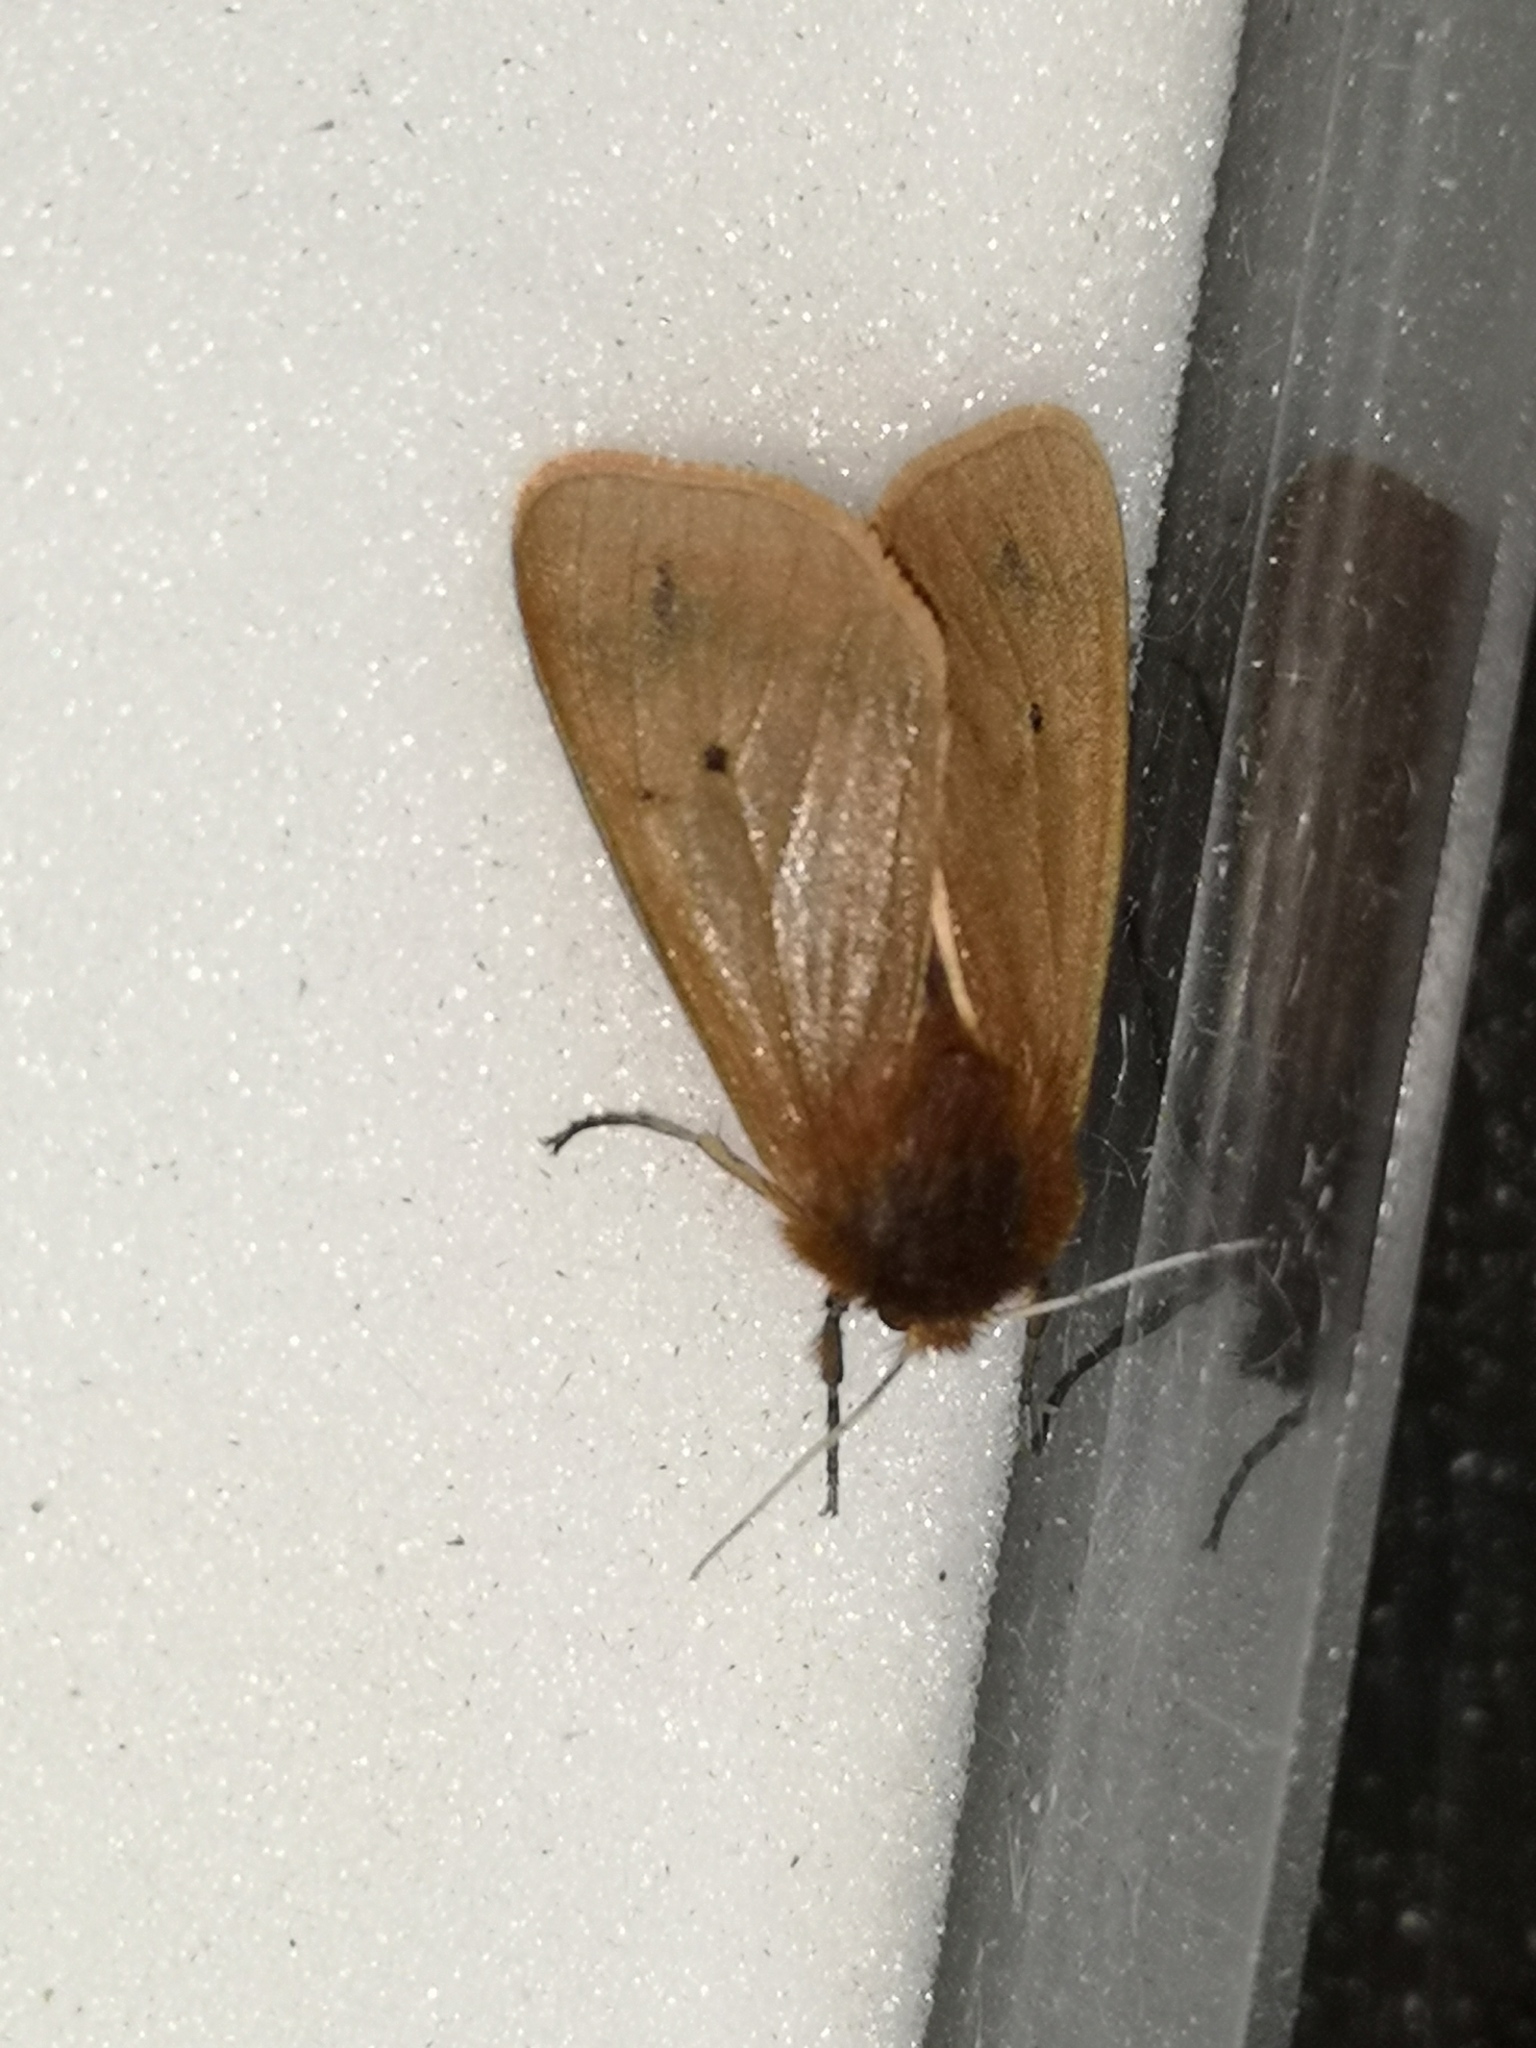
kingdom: Animalia
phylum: Arthropoda
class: Insecta
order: Lepidoptera
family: Erebidae
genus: Phragmatobia
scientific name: Phragmatobia fuliginosa
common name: Ruby tiger
